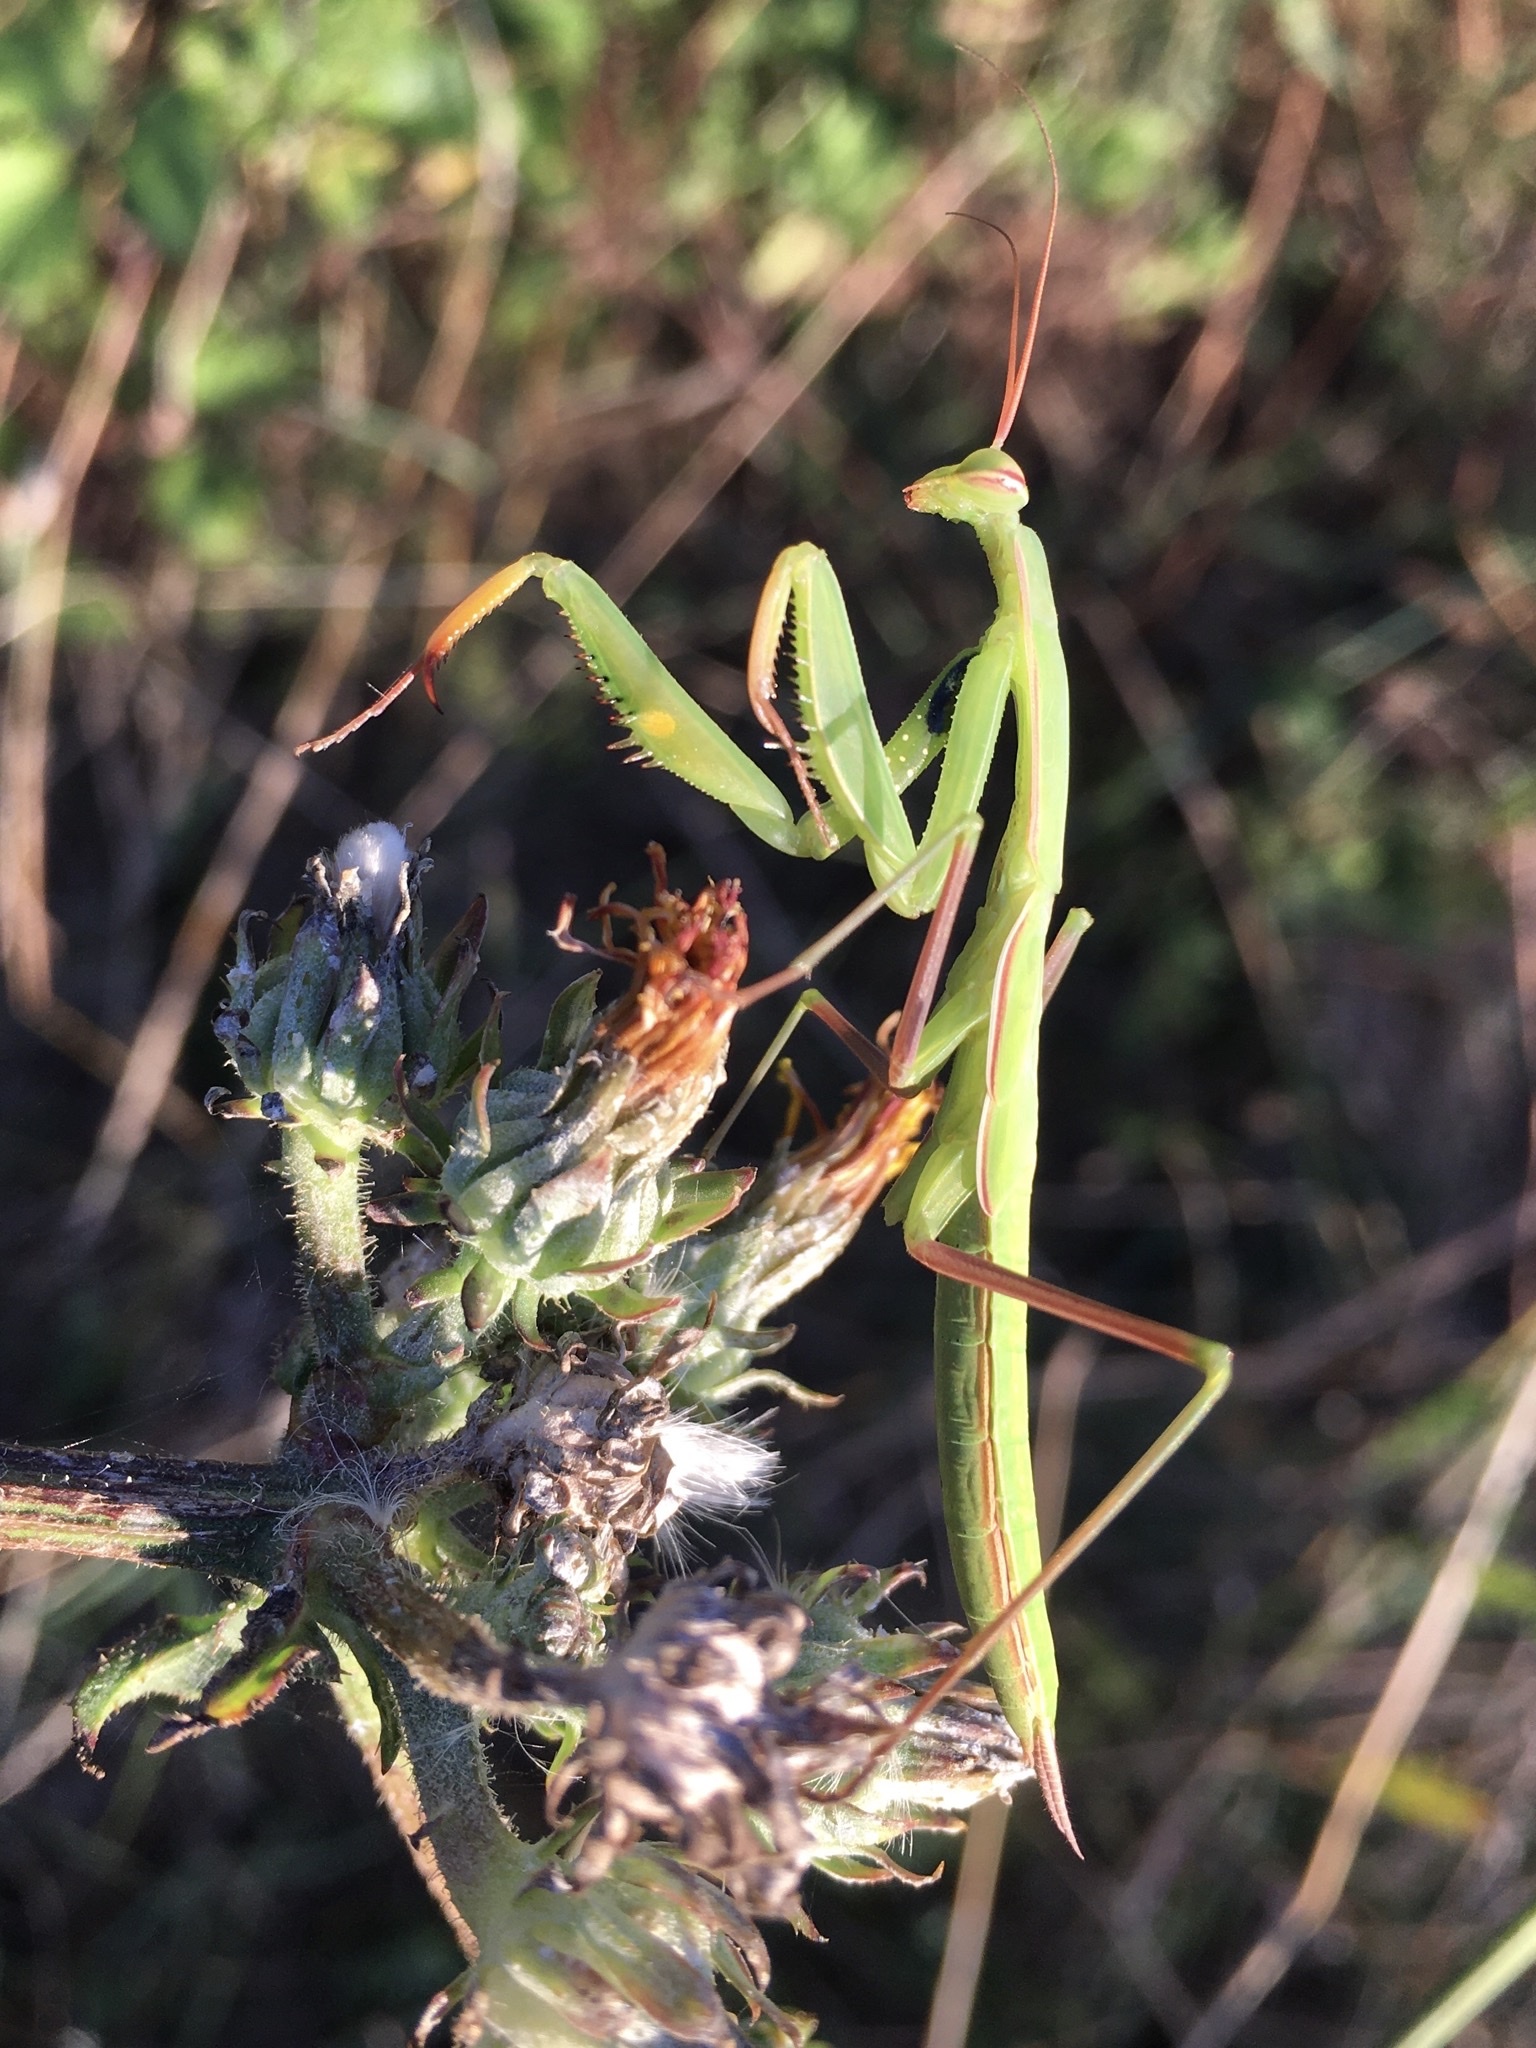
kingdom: Animalia
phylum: Arthropoda
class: Insecta
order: Mantodea
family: Mantidae
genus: Mantis
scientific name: Mantis religiosa
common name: Praying mantis
